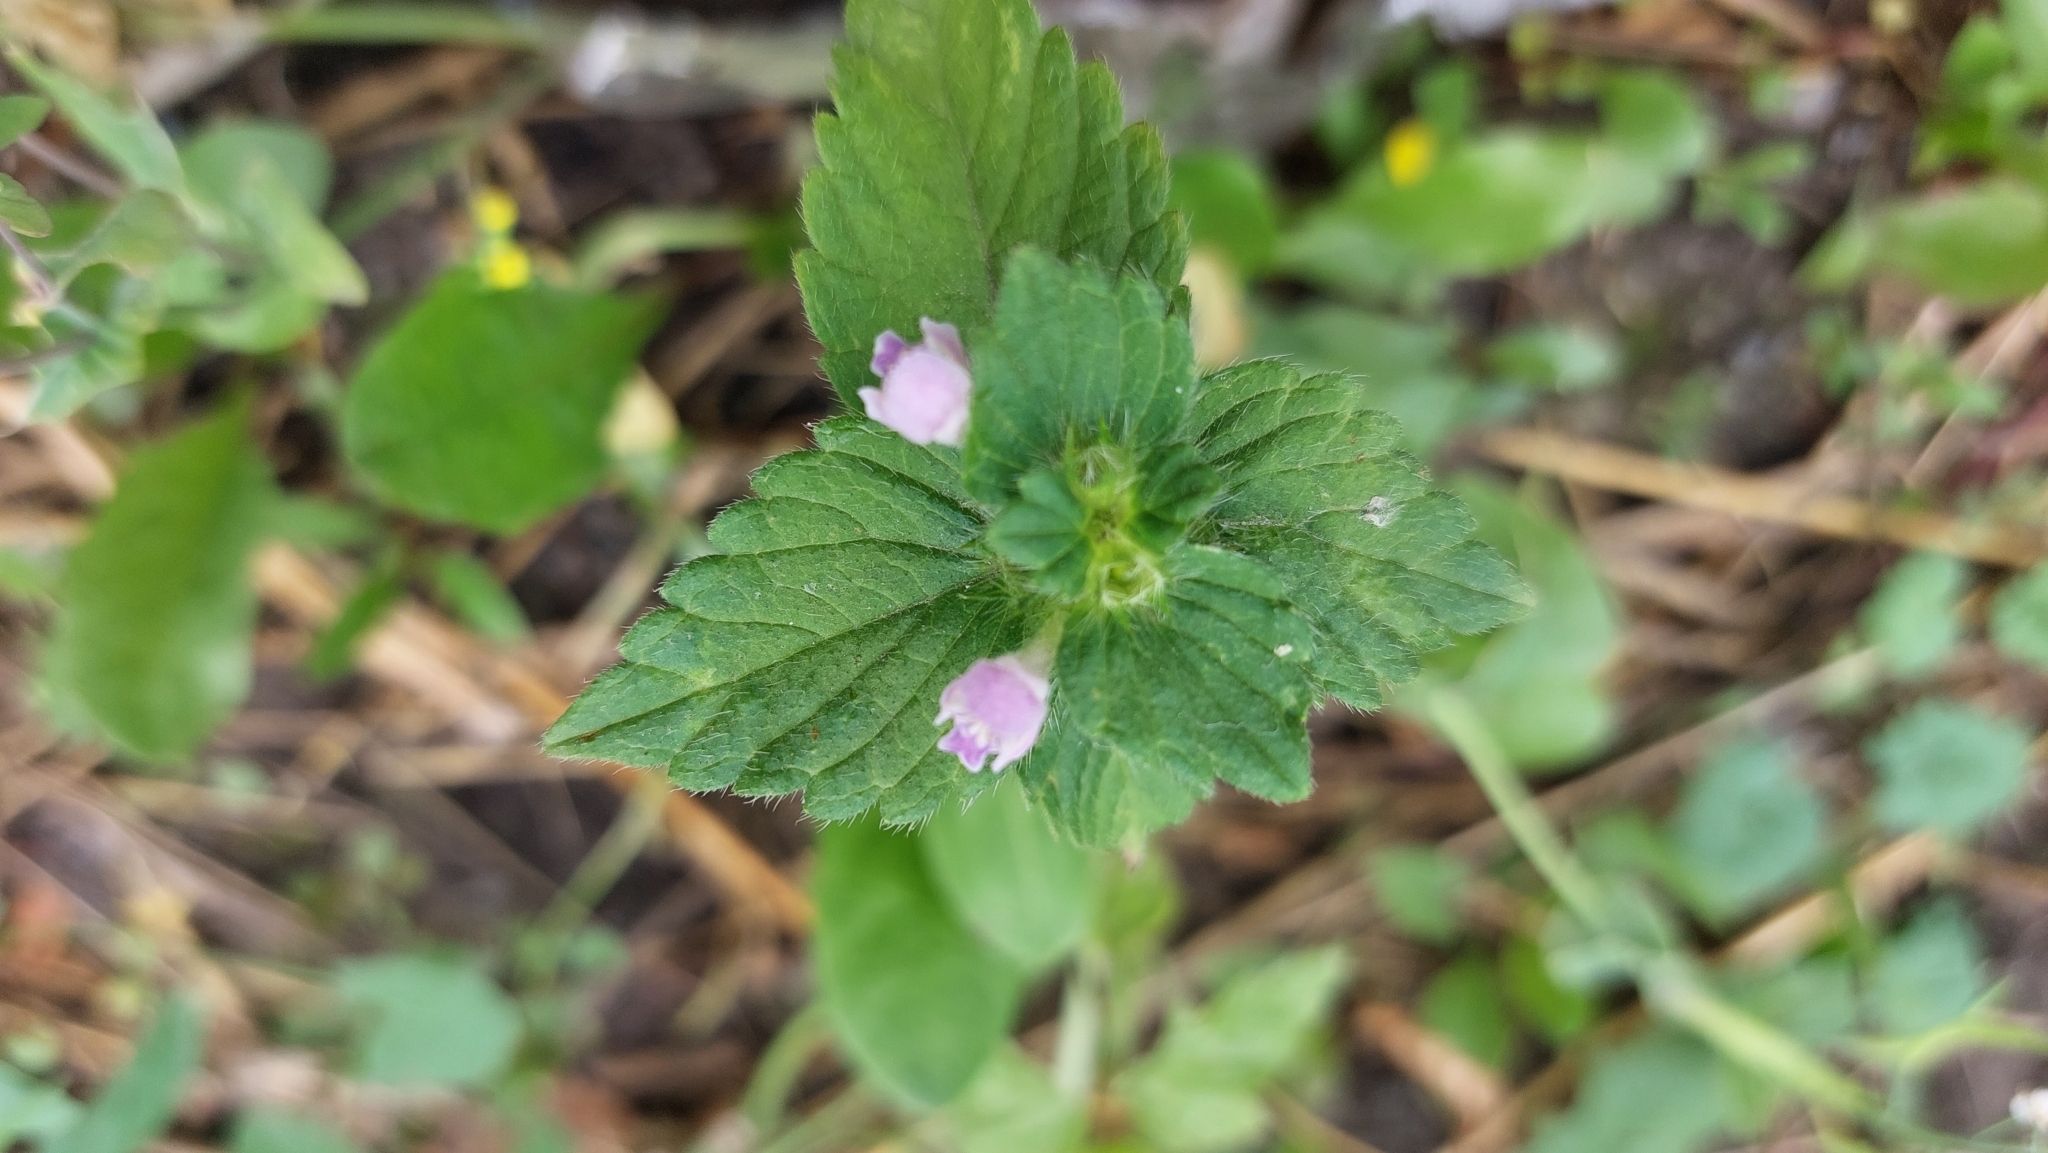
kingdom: Plantae
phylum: Tracheophyta
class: Magnoliopsida
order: Lamiales
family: Lamiaceae
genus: Galeopsis
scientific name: Galeopsis bifida
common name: Bifid hemp-nettle
